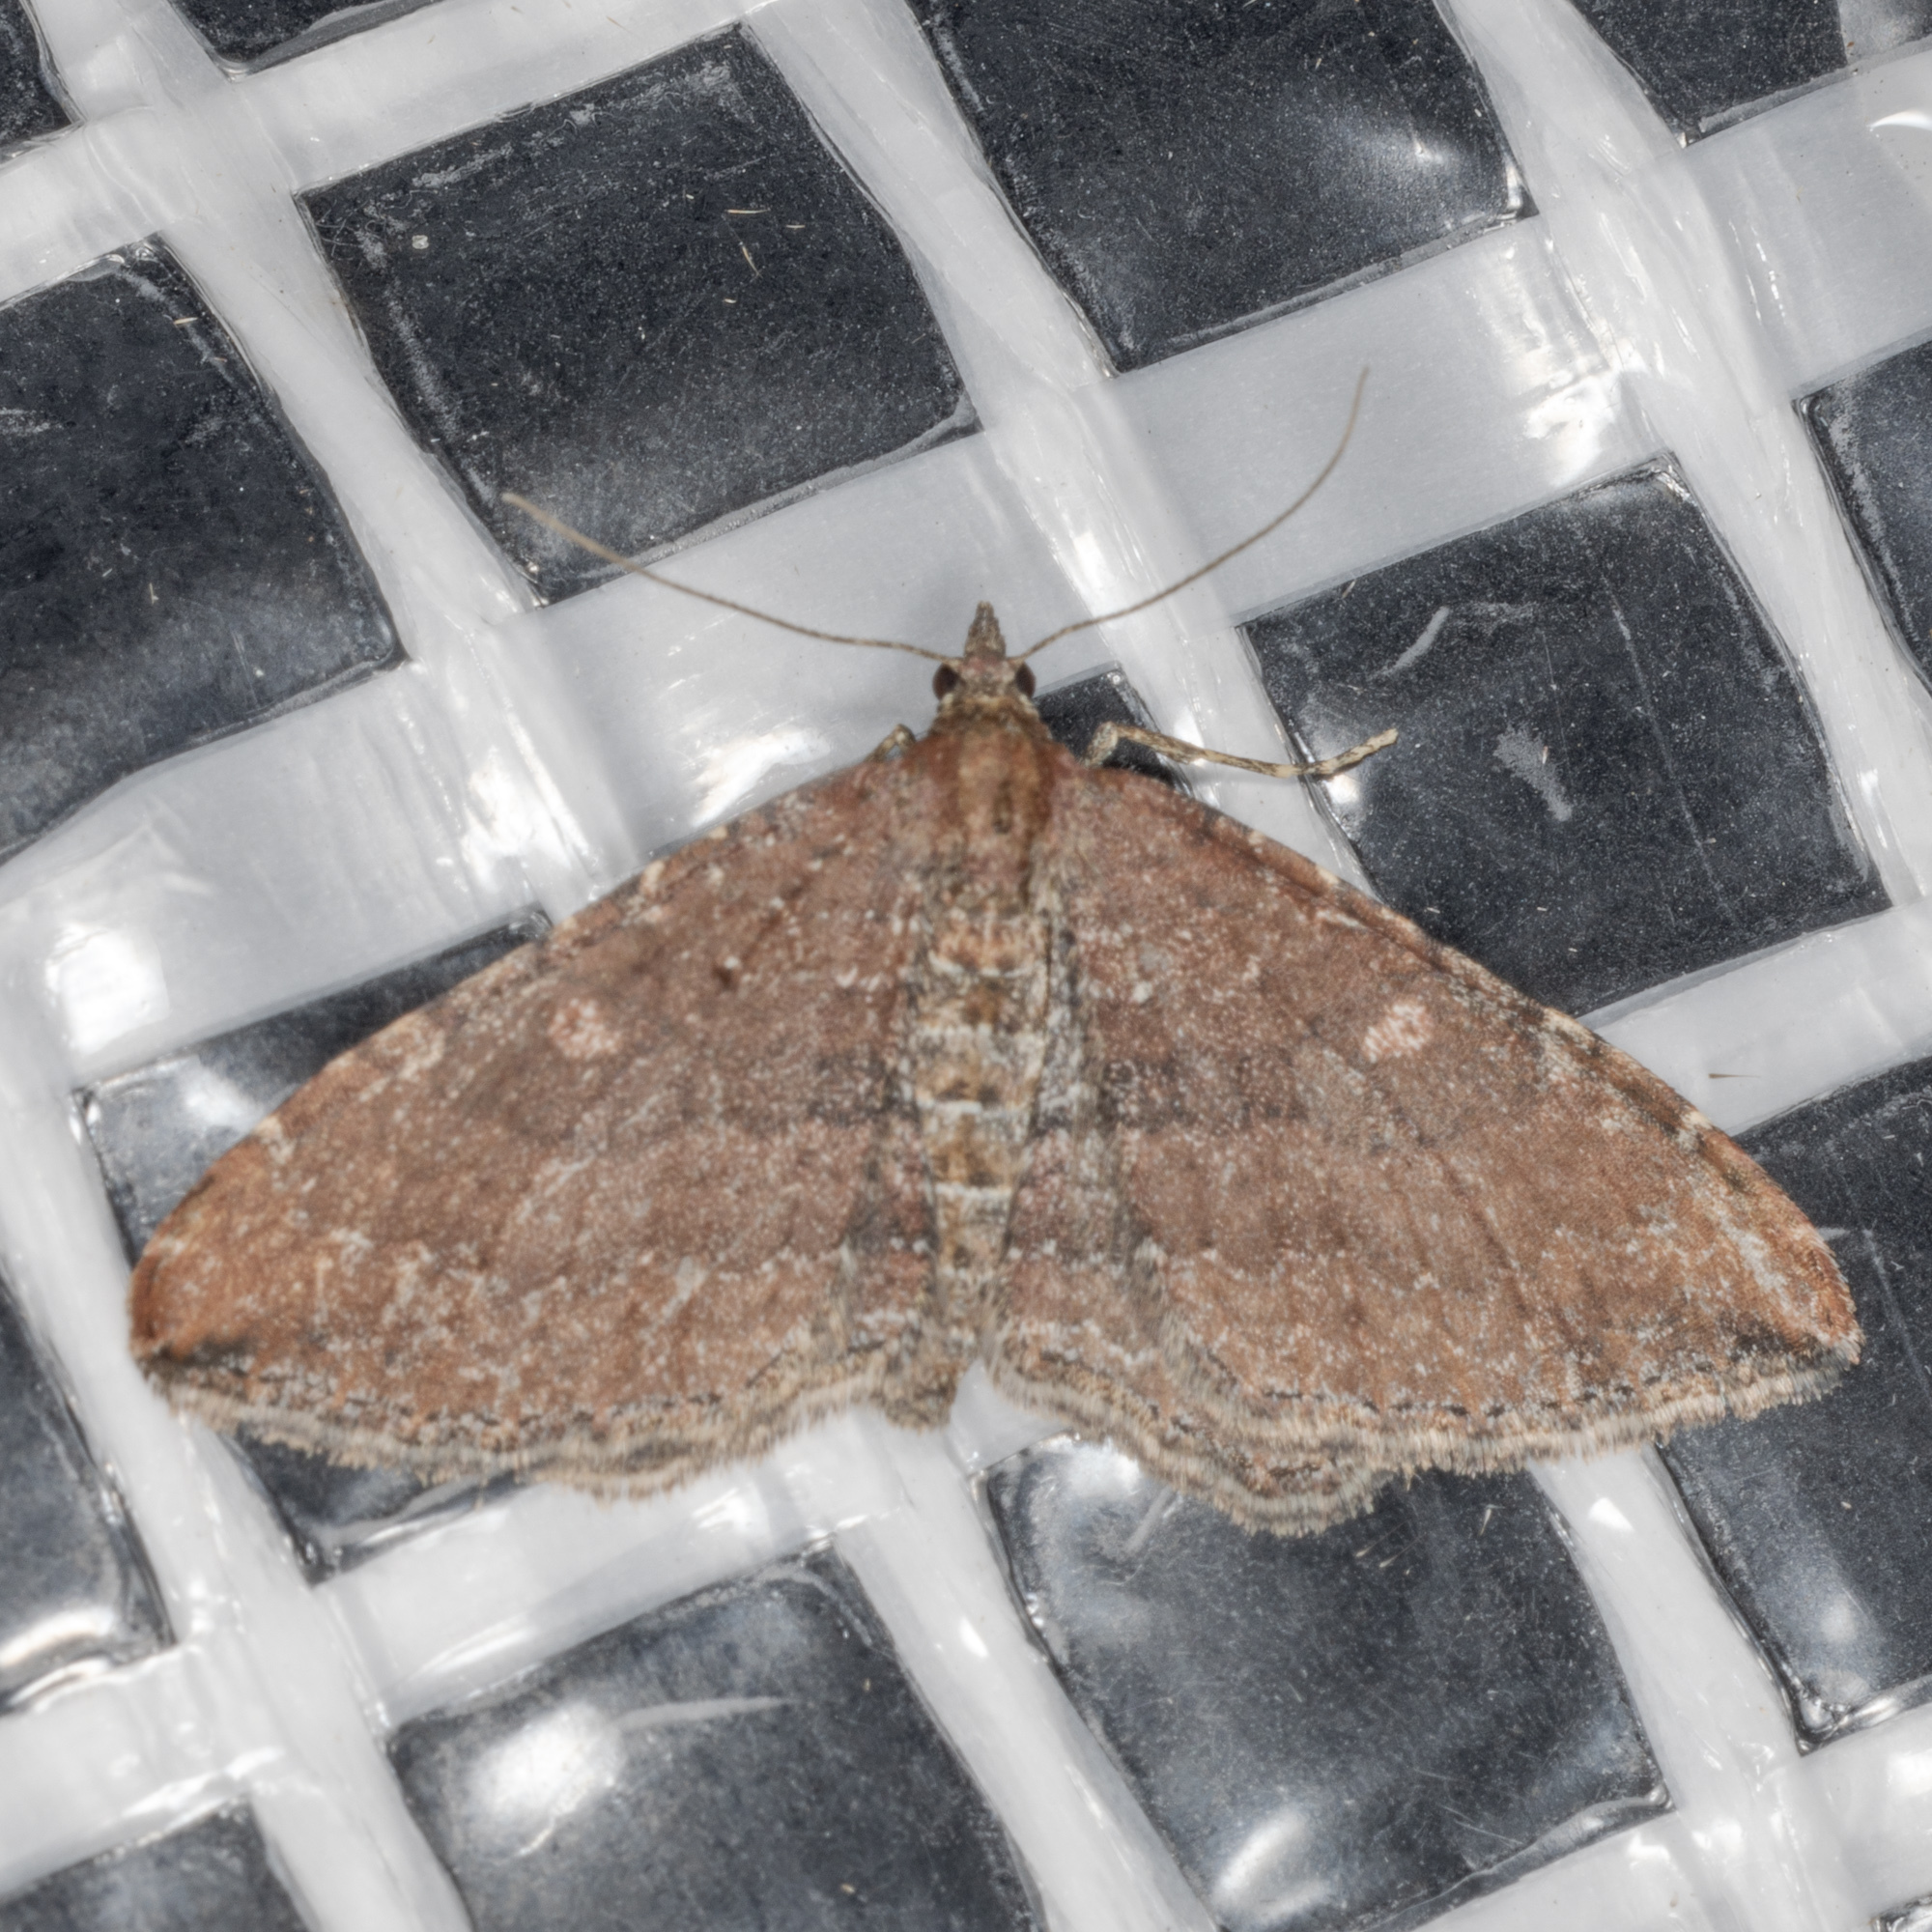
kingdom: Animalia
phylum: Arthropoda
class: Insecta
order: Lepidoptera
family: Geometridae
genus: Orthonama
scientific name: Orthonama obstipata
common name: The gem
